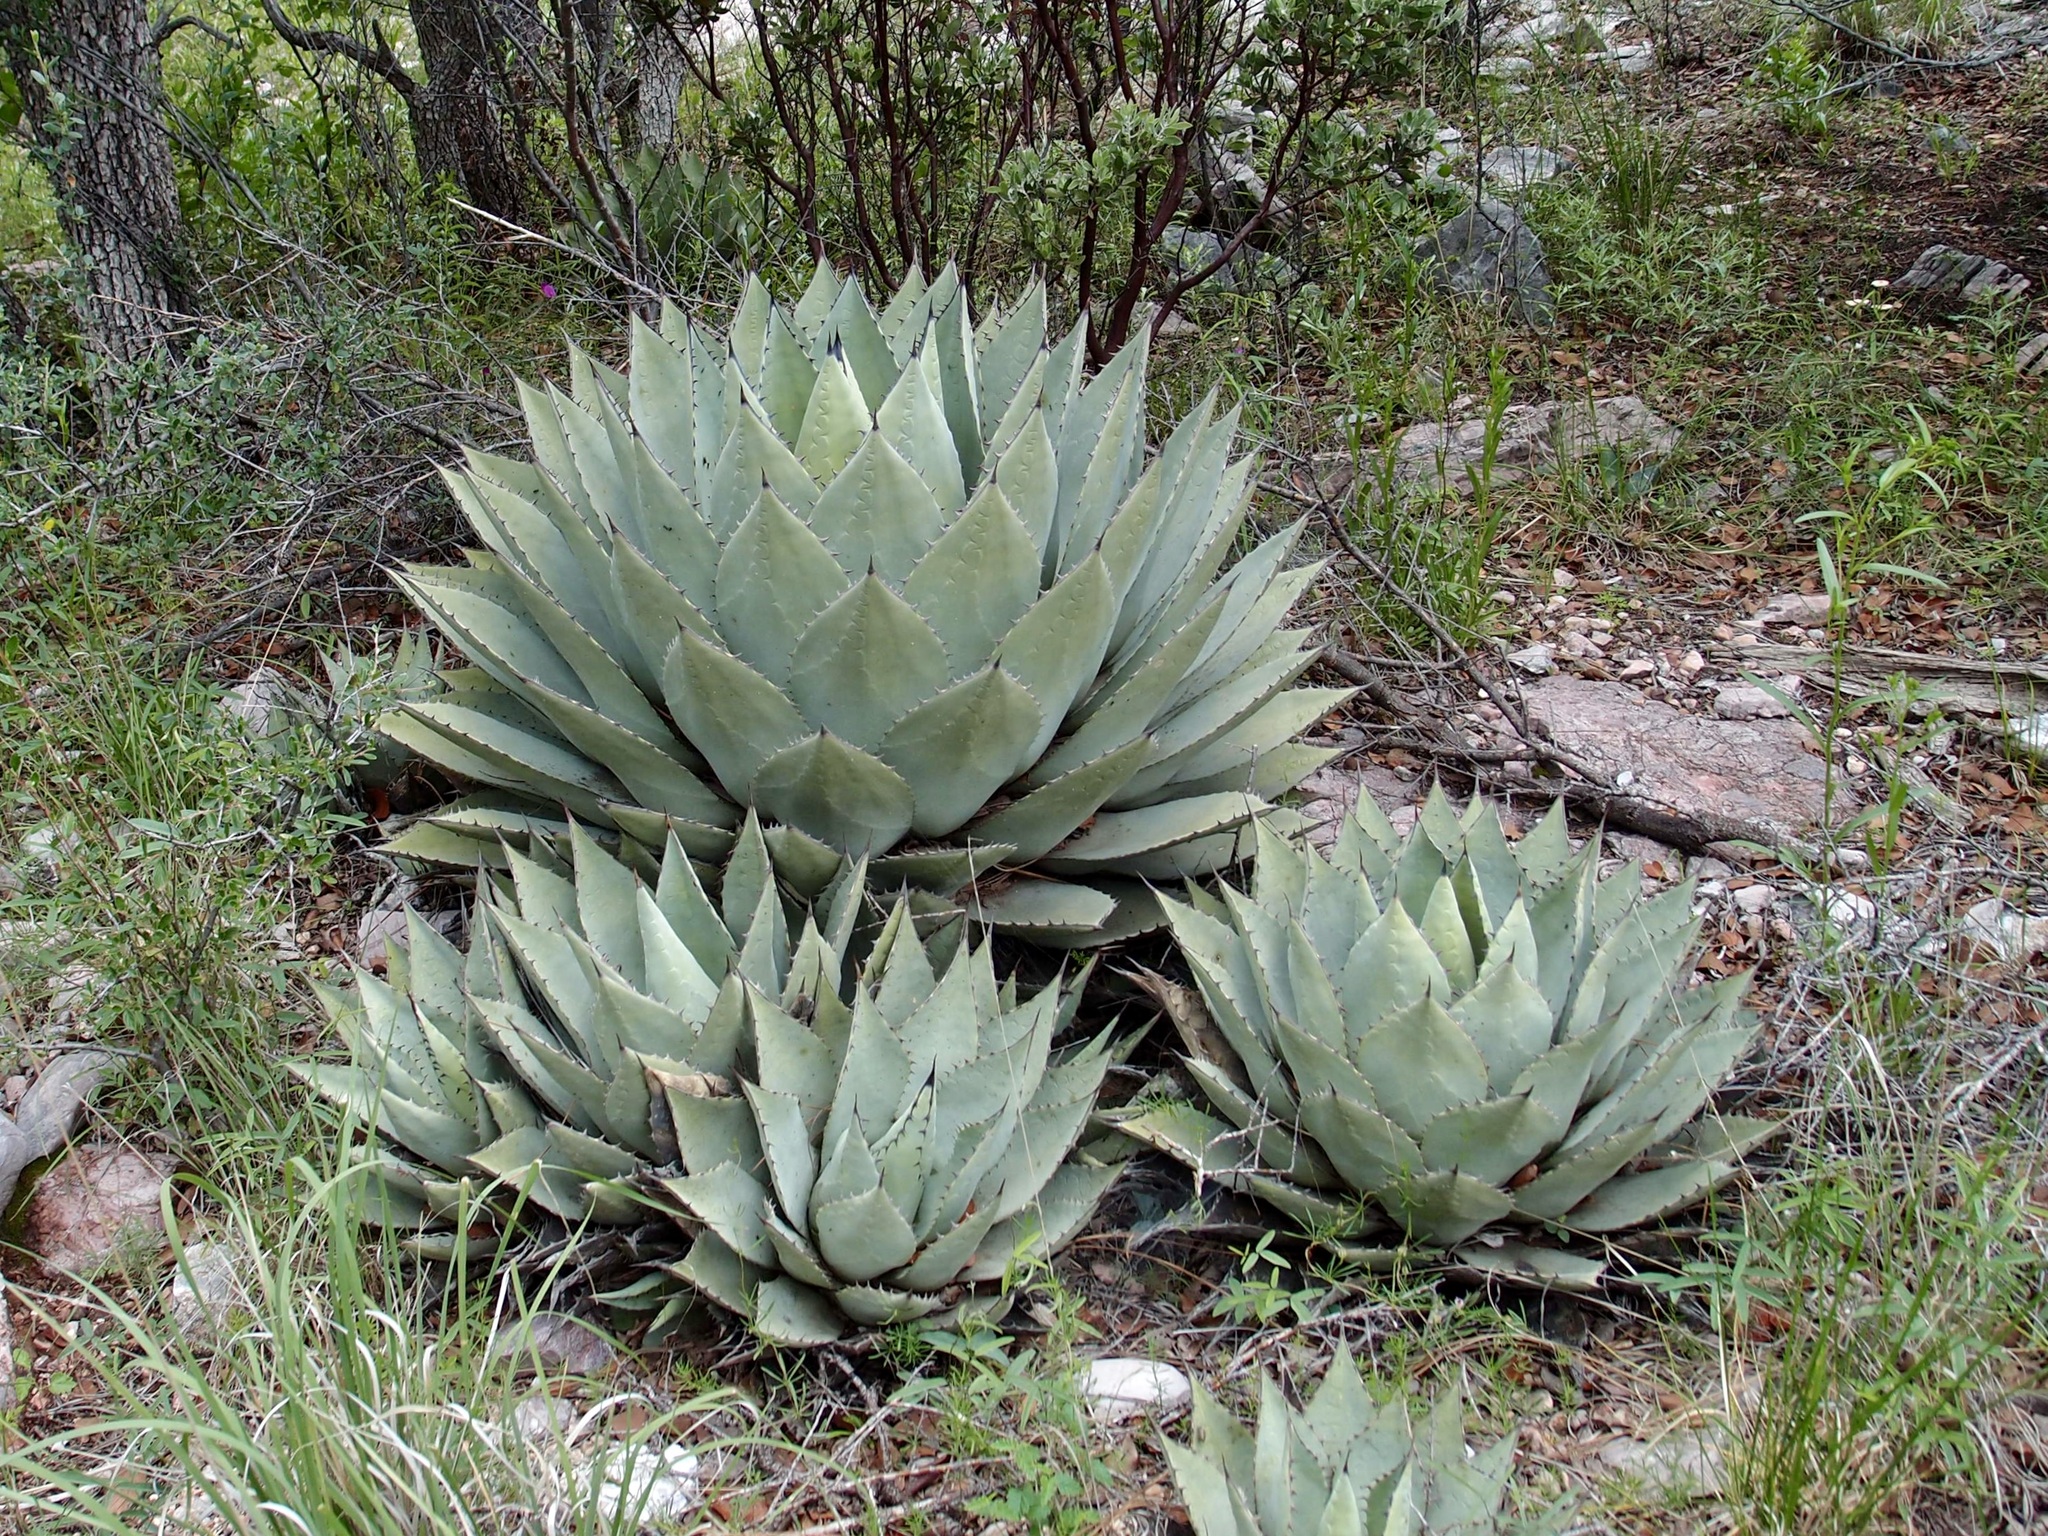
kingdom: Plantae
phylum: Tracheophyta
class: Liliopsida
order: Asparagales
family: Asparagaceae
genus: Agave
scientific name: Agave parryi
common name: Parry's agave
